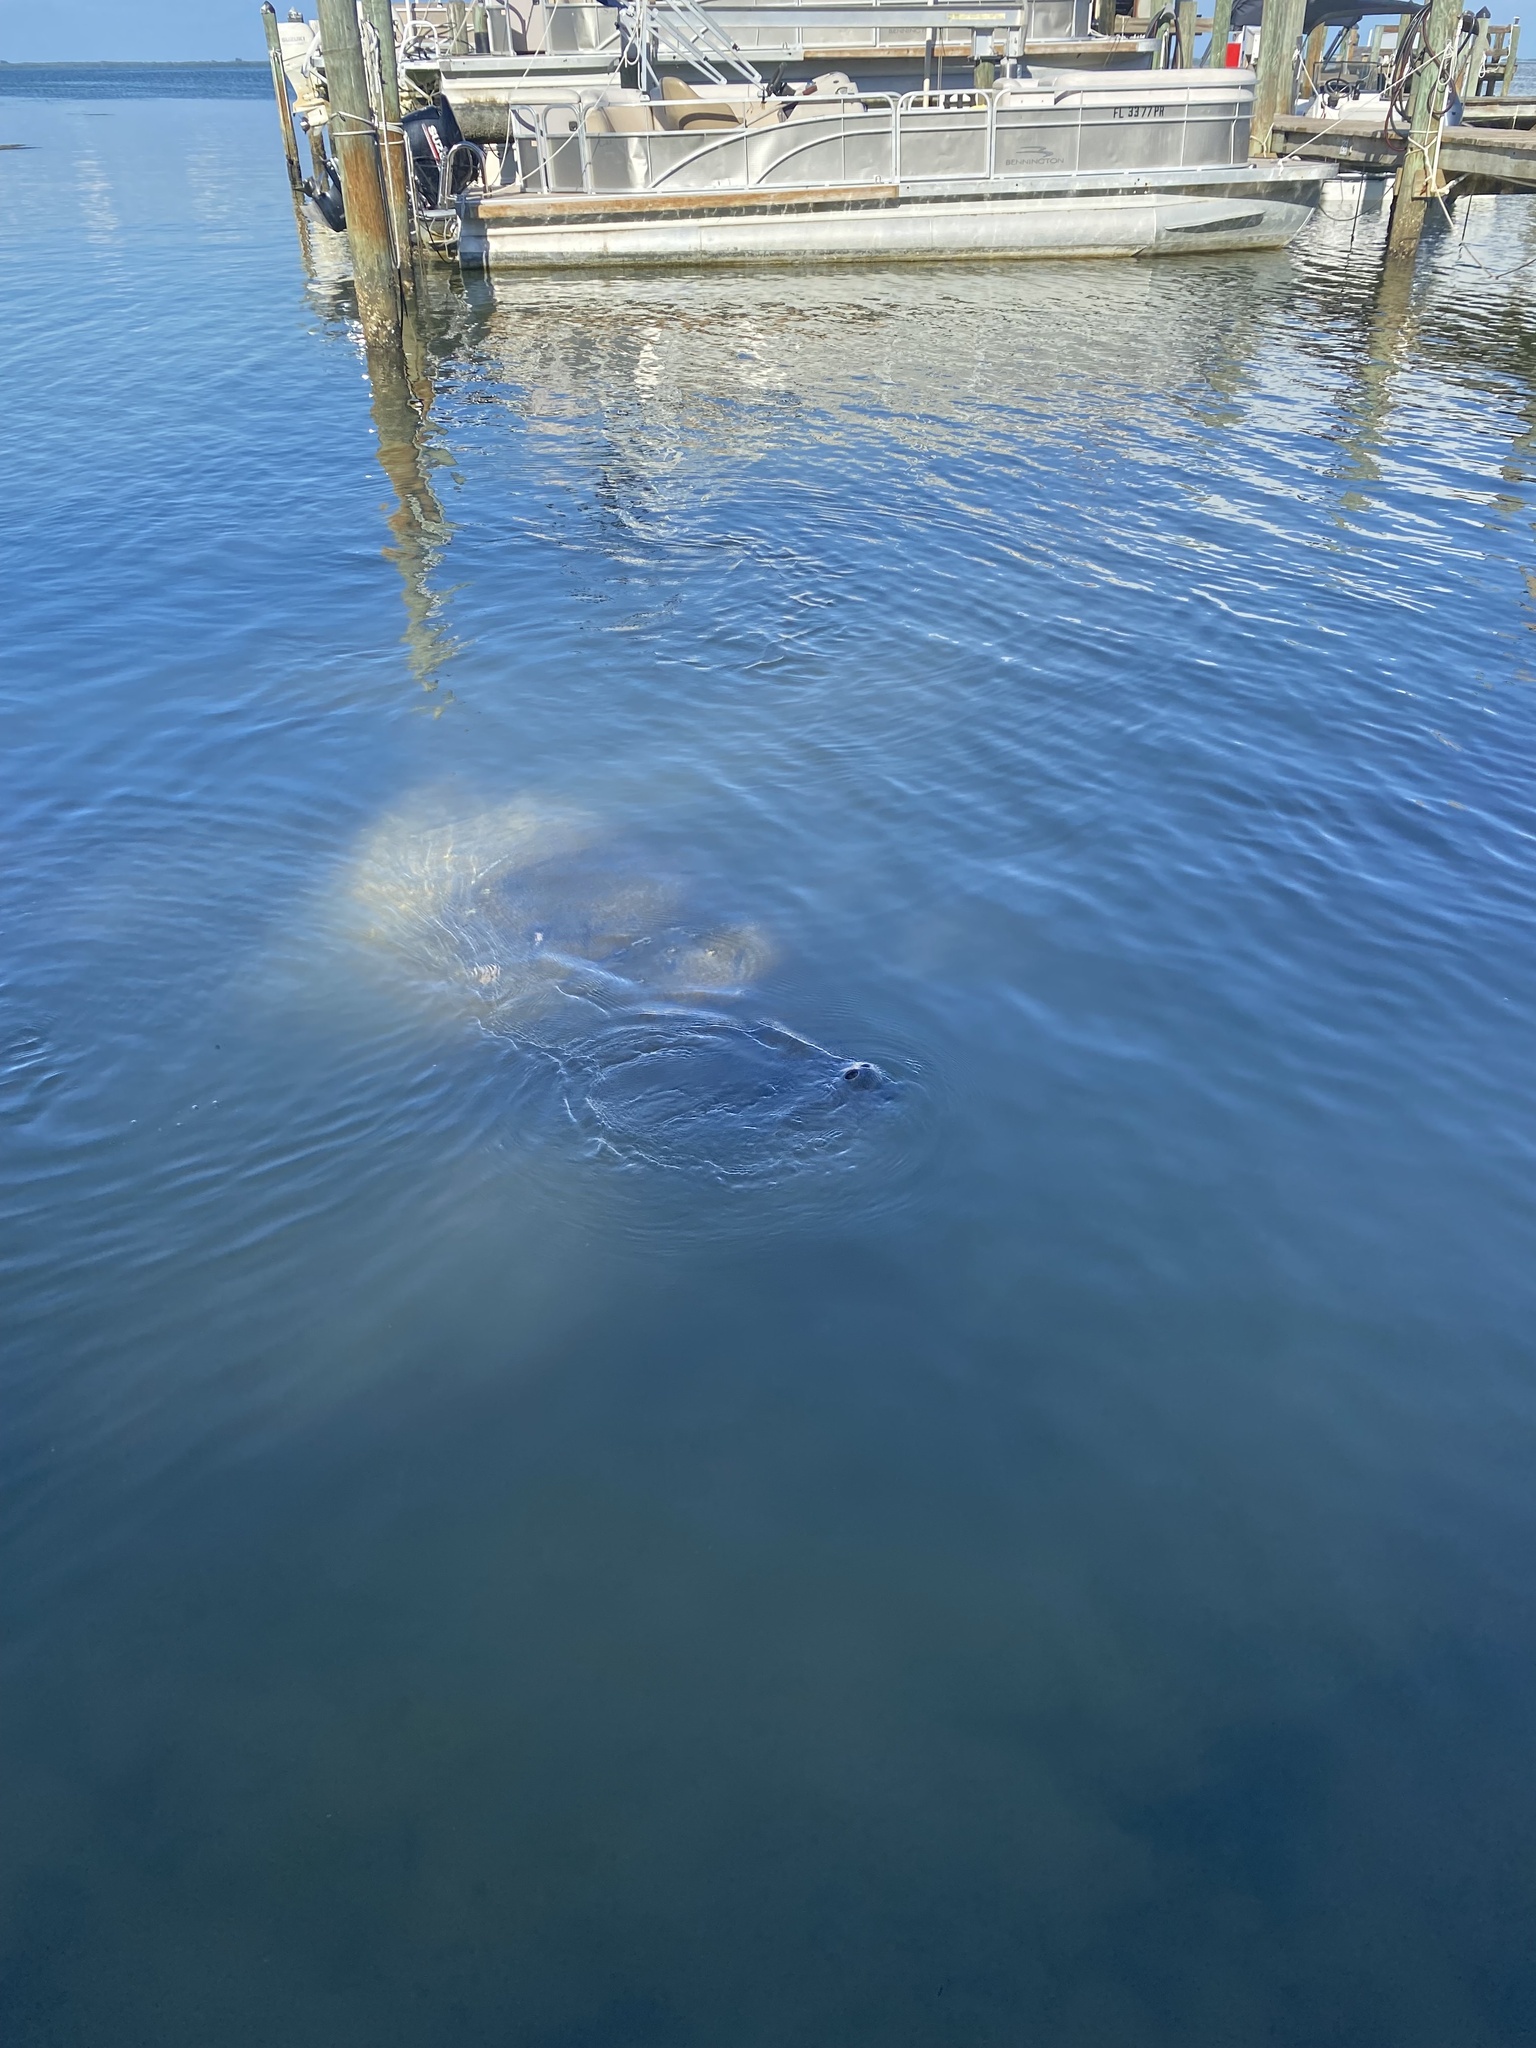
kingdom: Animalia
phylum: Chordata
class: Mammalia
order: Sirenia
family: Trichechidae
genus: Trichechus
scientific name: Trichechus manatus
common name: West indian manatee
